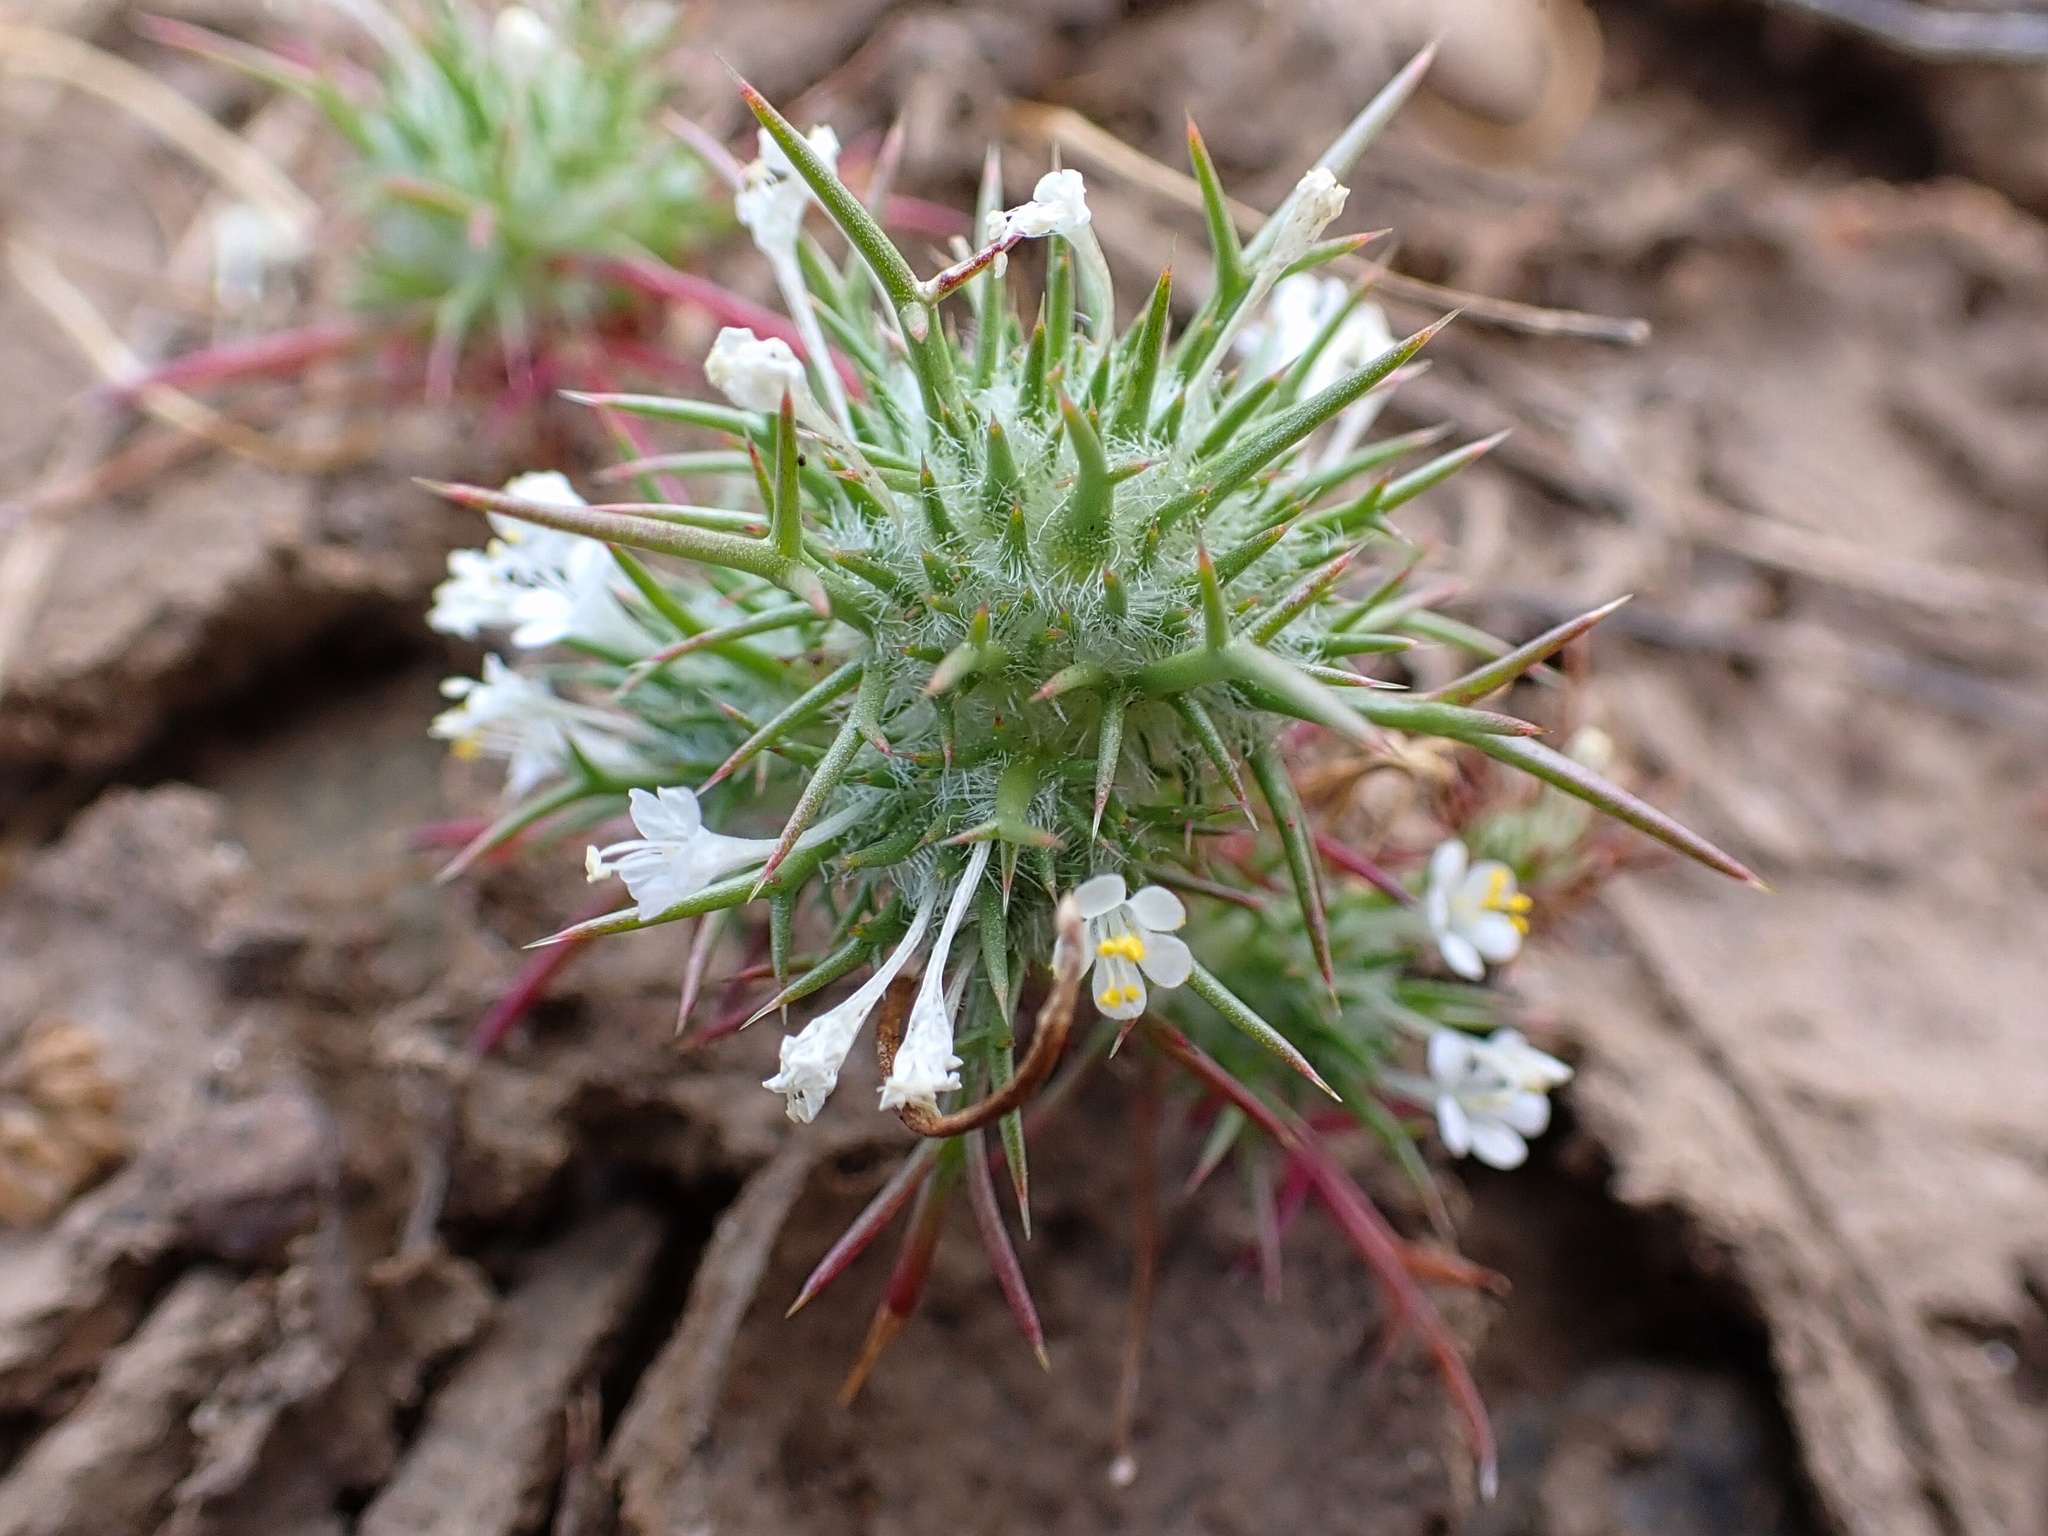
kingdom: Plantae
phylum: Tracheophyta
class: Magnoliopsida
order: Ericales
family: Polemoniaceae
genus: Navarretia
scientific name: Navarretia intertexta
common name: Needle-leaved navarretia
